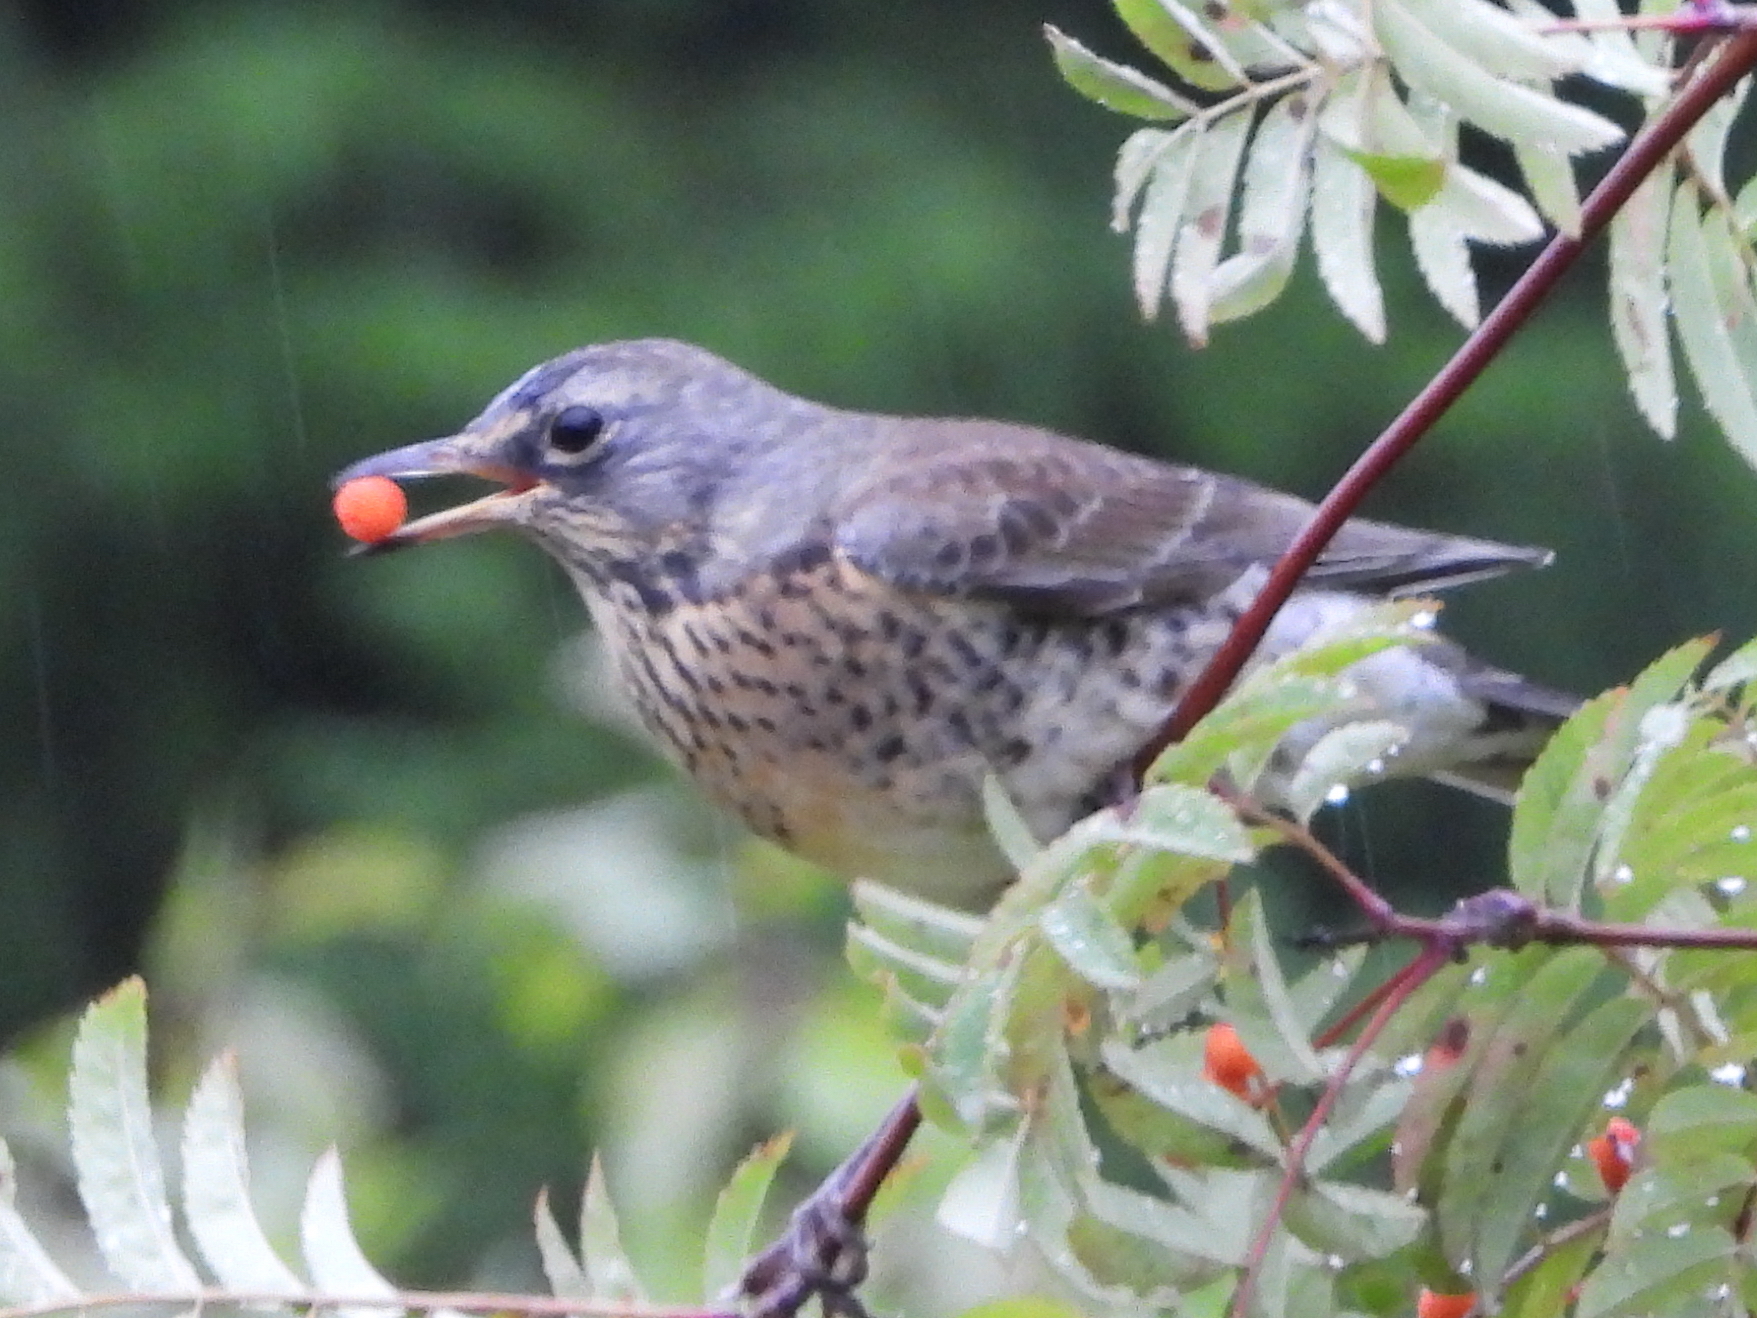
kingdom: Animalia
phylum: Chordata
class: Aves
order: Passeriformes
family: Turdidae
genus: Turdus
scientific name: Turdus pilaris
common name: Fieldfare
